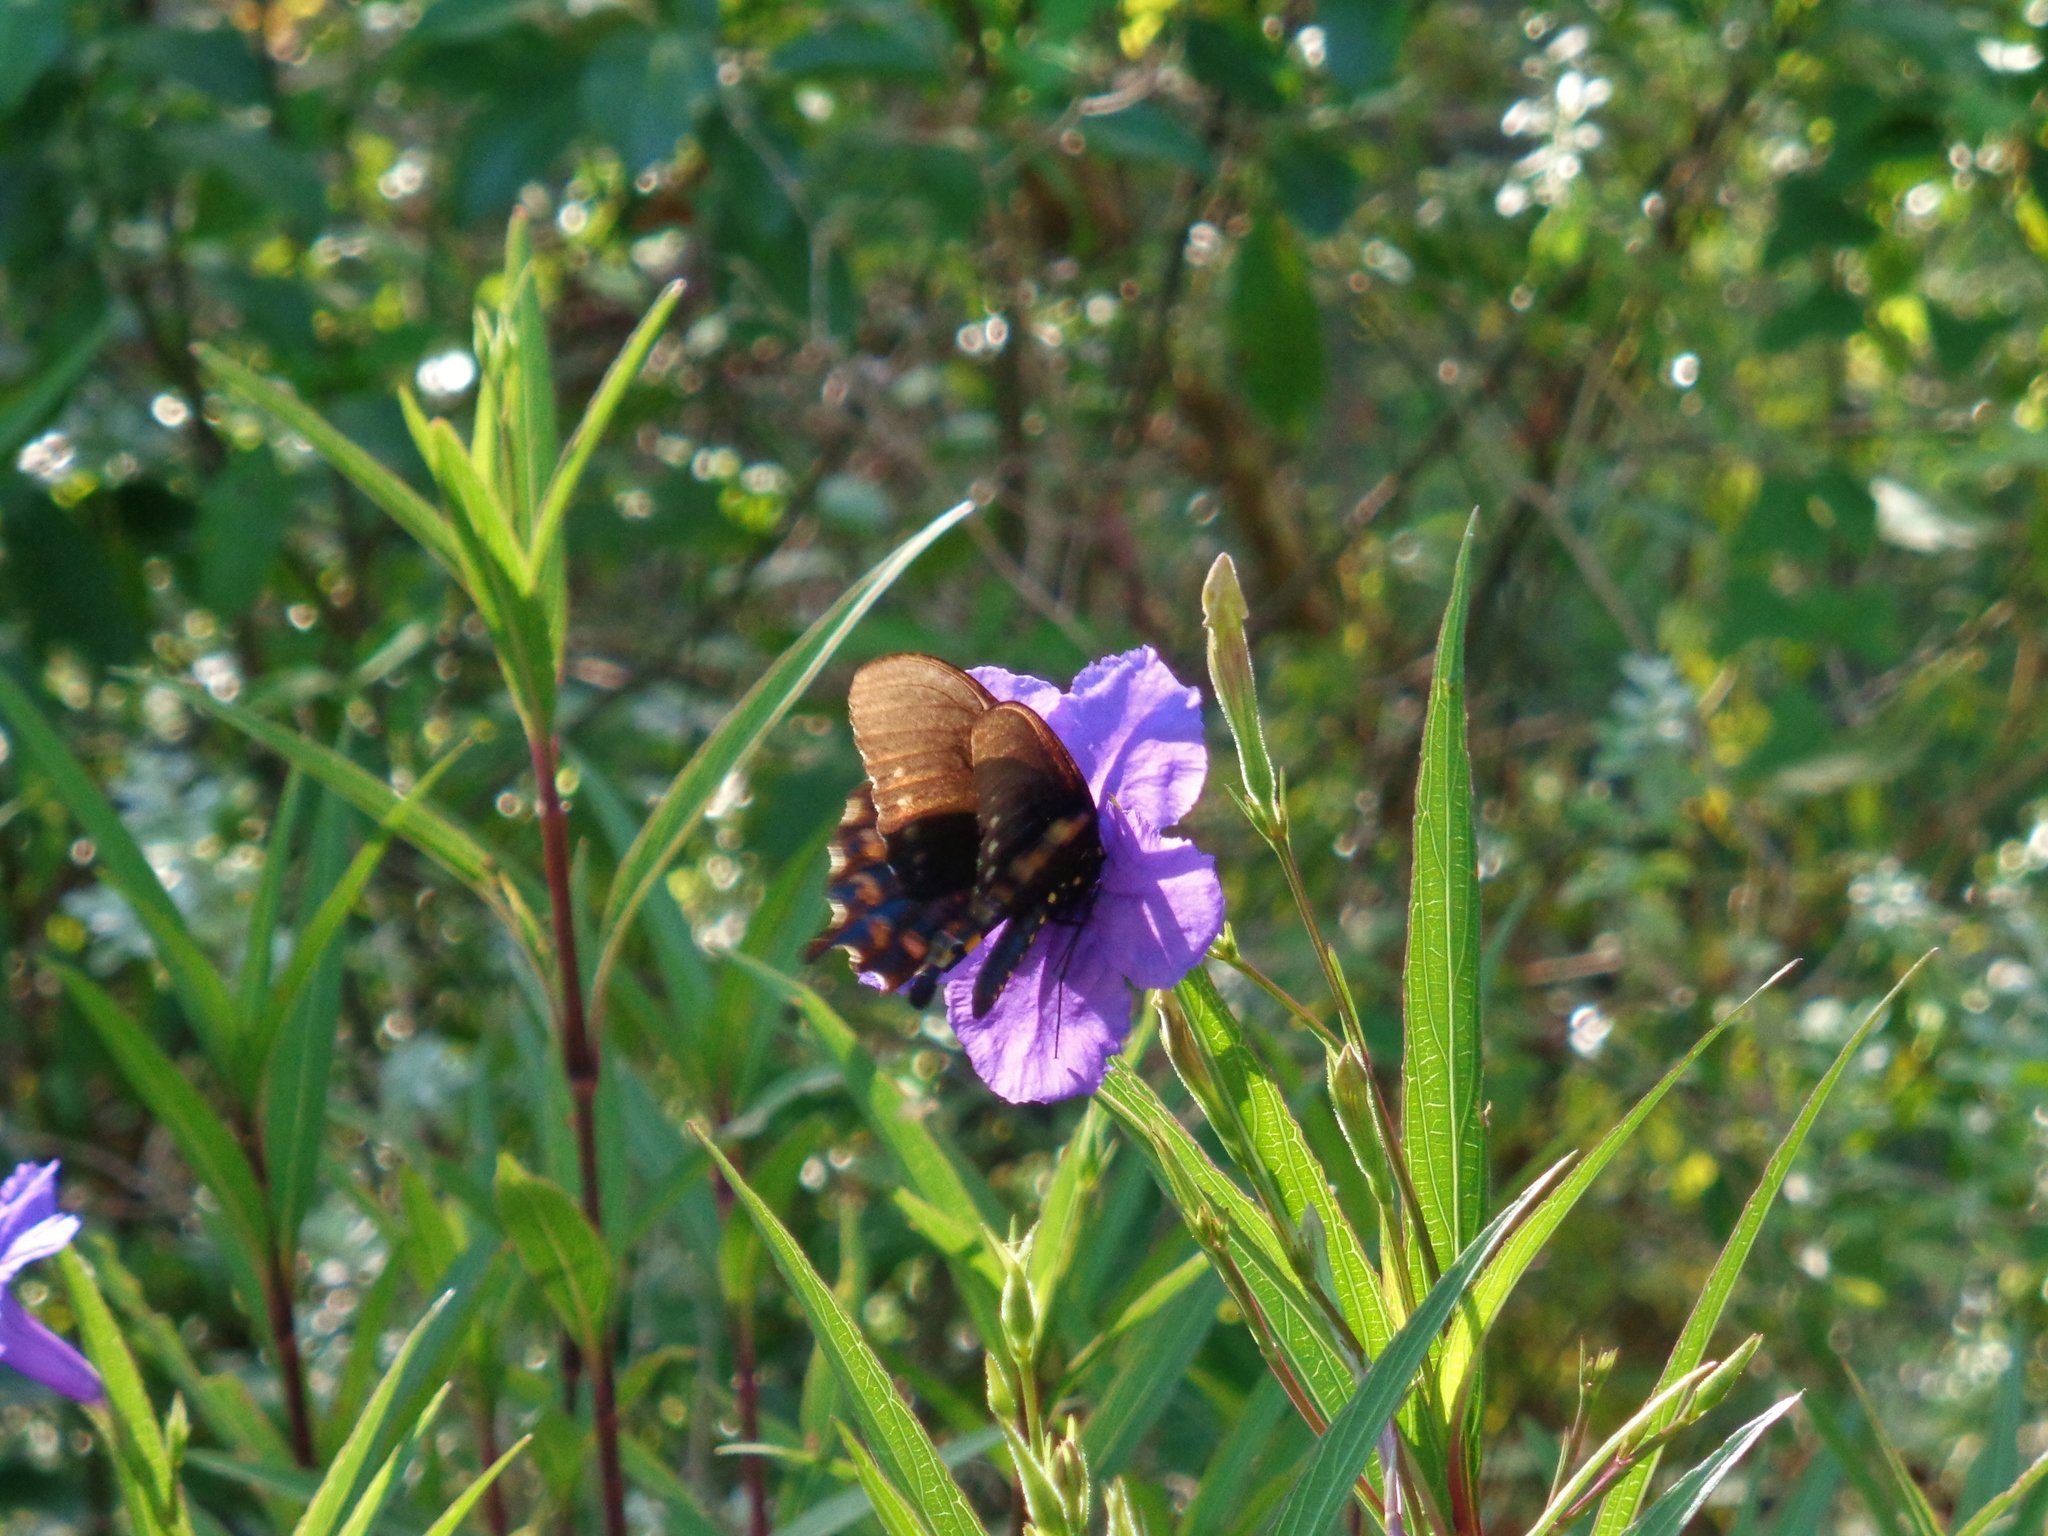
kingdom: Animalia
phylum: Arthropoda
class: Insecta
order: Lepidoptera
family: Papilionidae
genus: Battus
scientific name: Battus philenor
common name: Pipevine swallowtail
